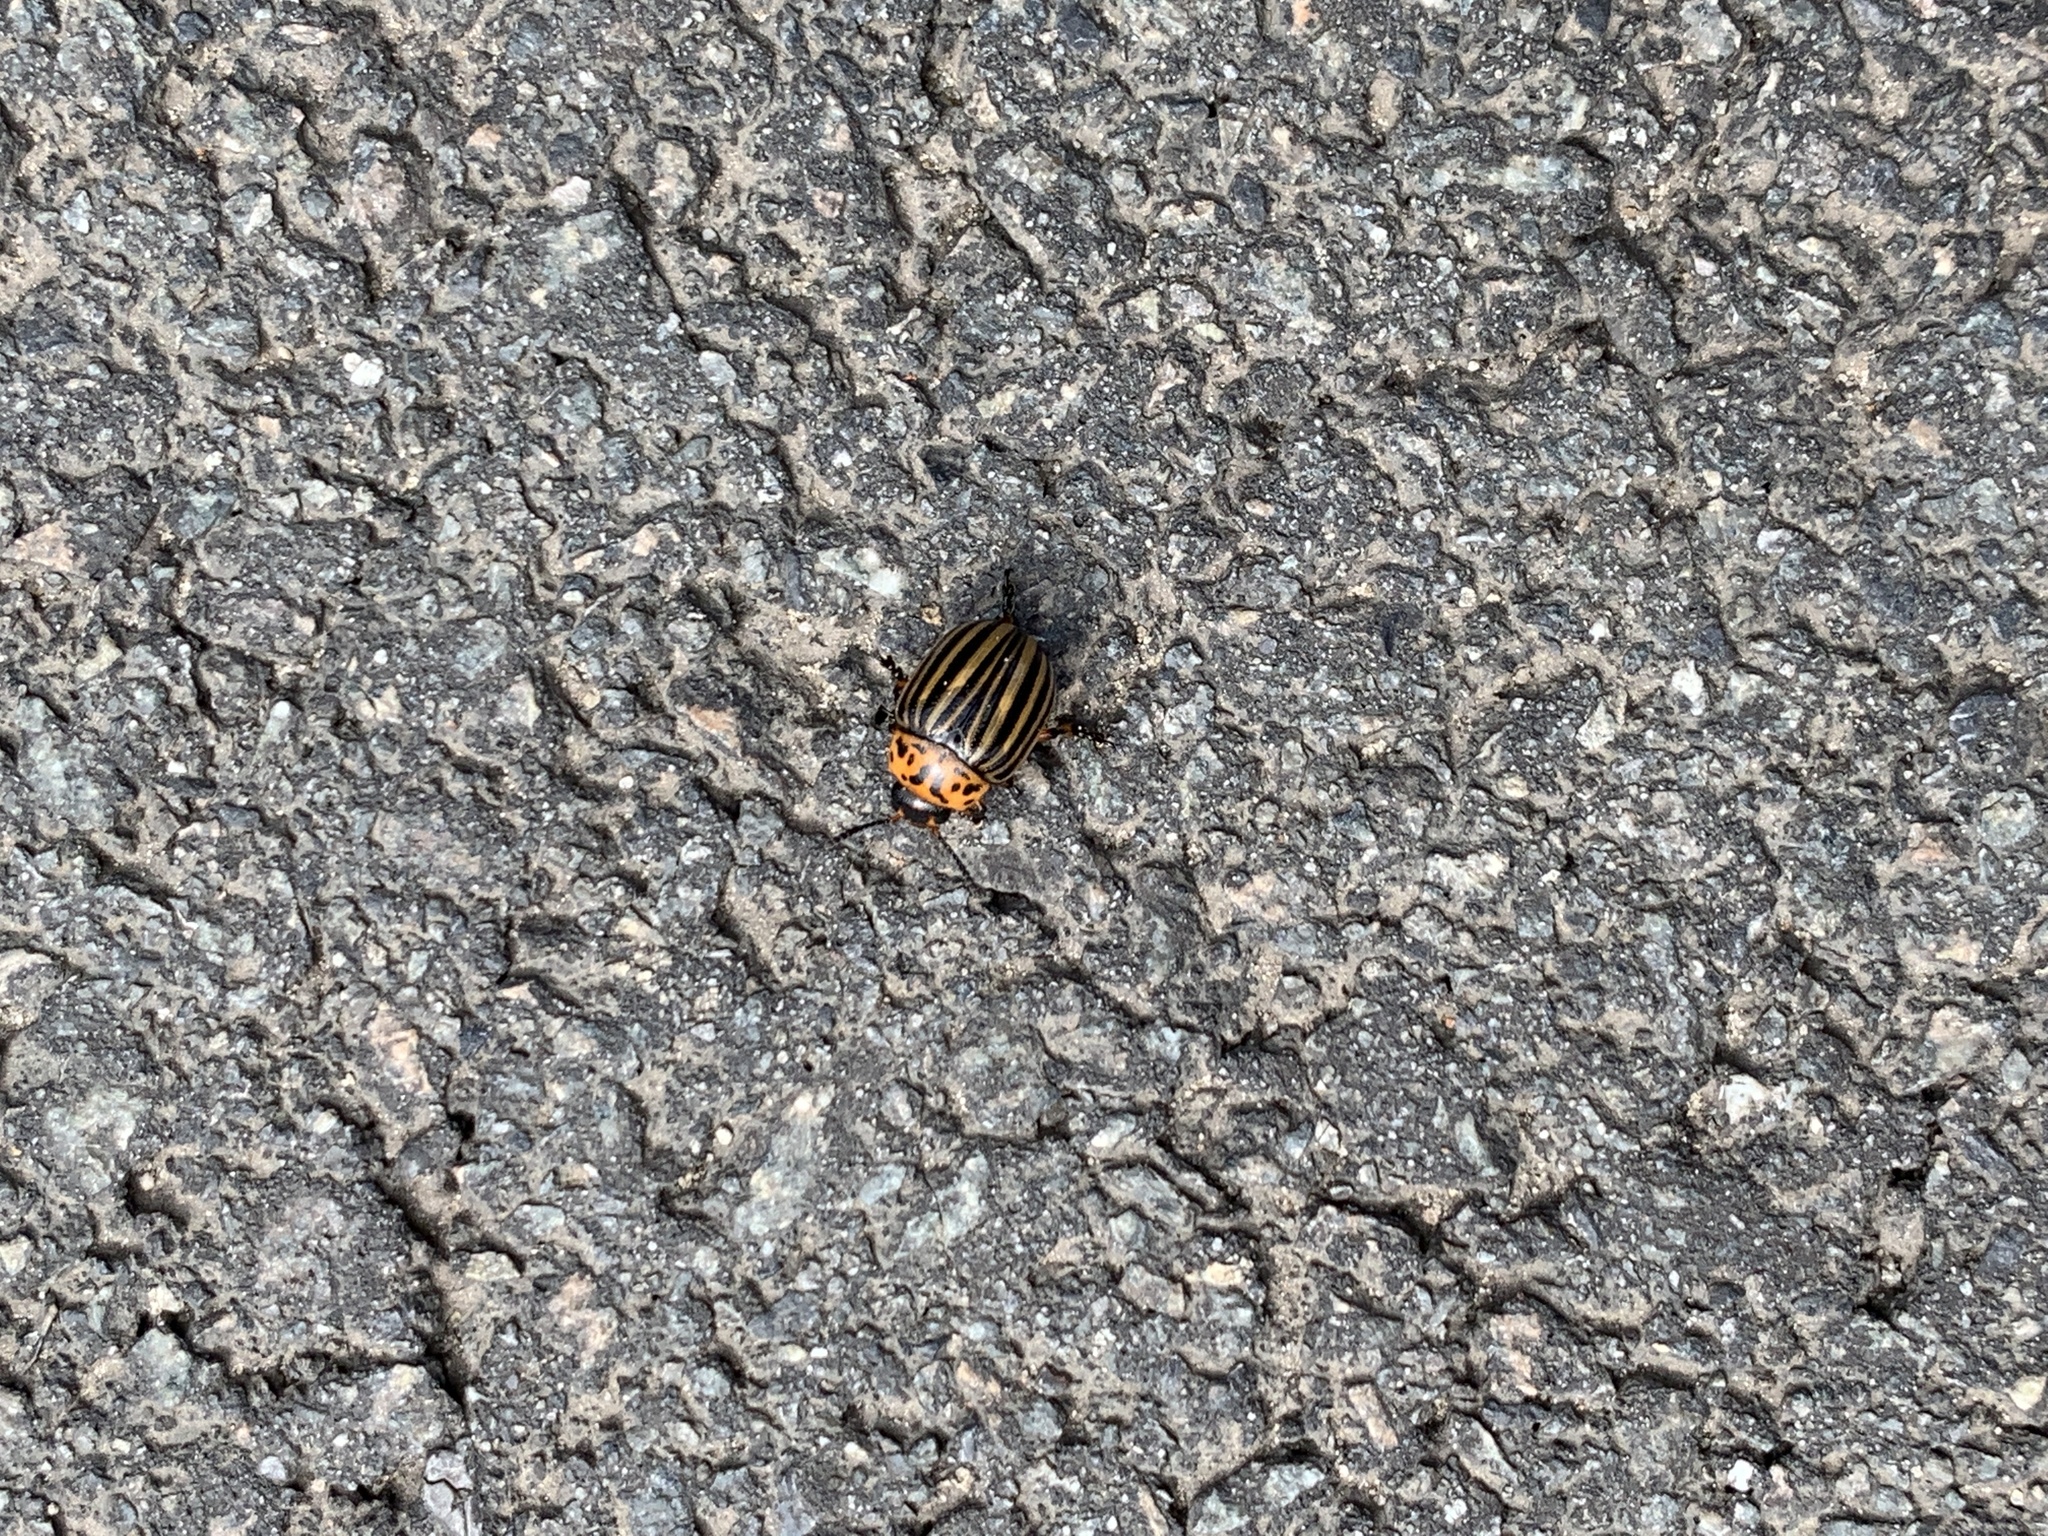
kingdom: Animalia
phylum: Arthropoda
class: Insecta
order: Coleoptera
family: Chrysomelidae
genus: Leptinotarsa
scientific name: Leptinotarsa decemlineata
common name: Colorado potato beetle
